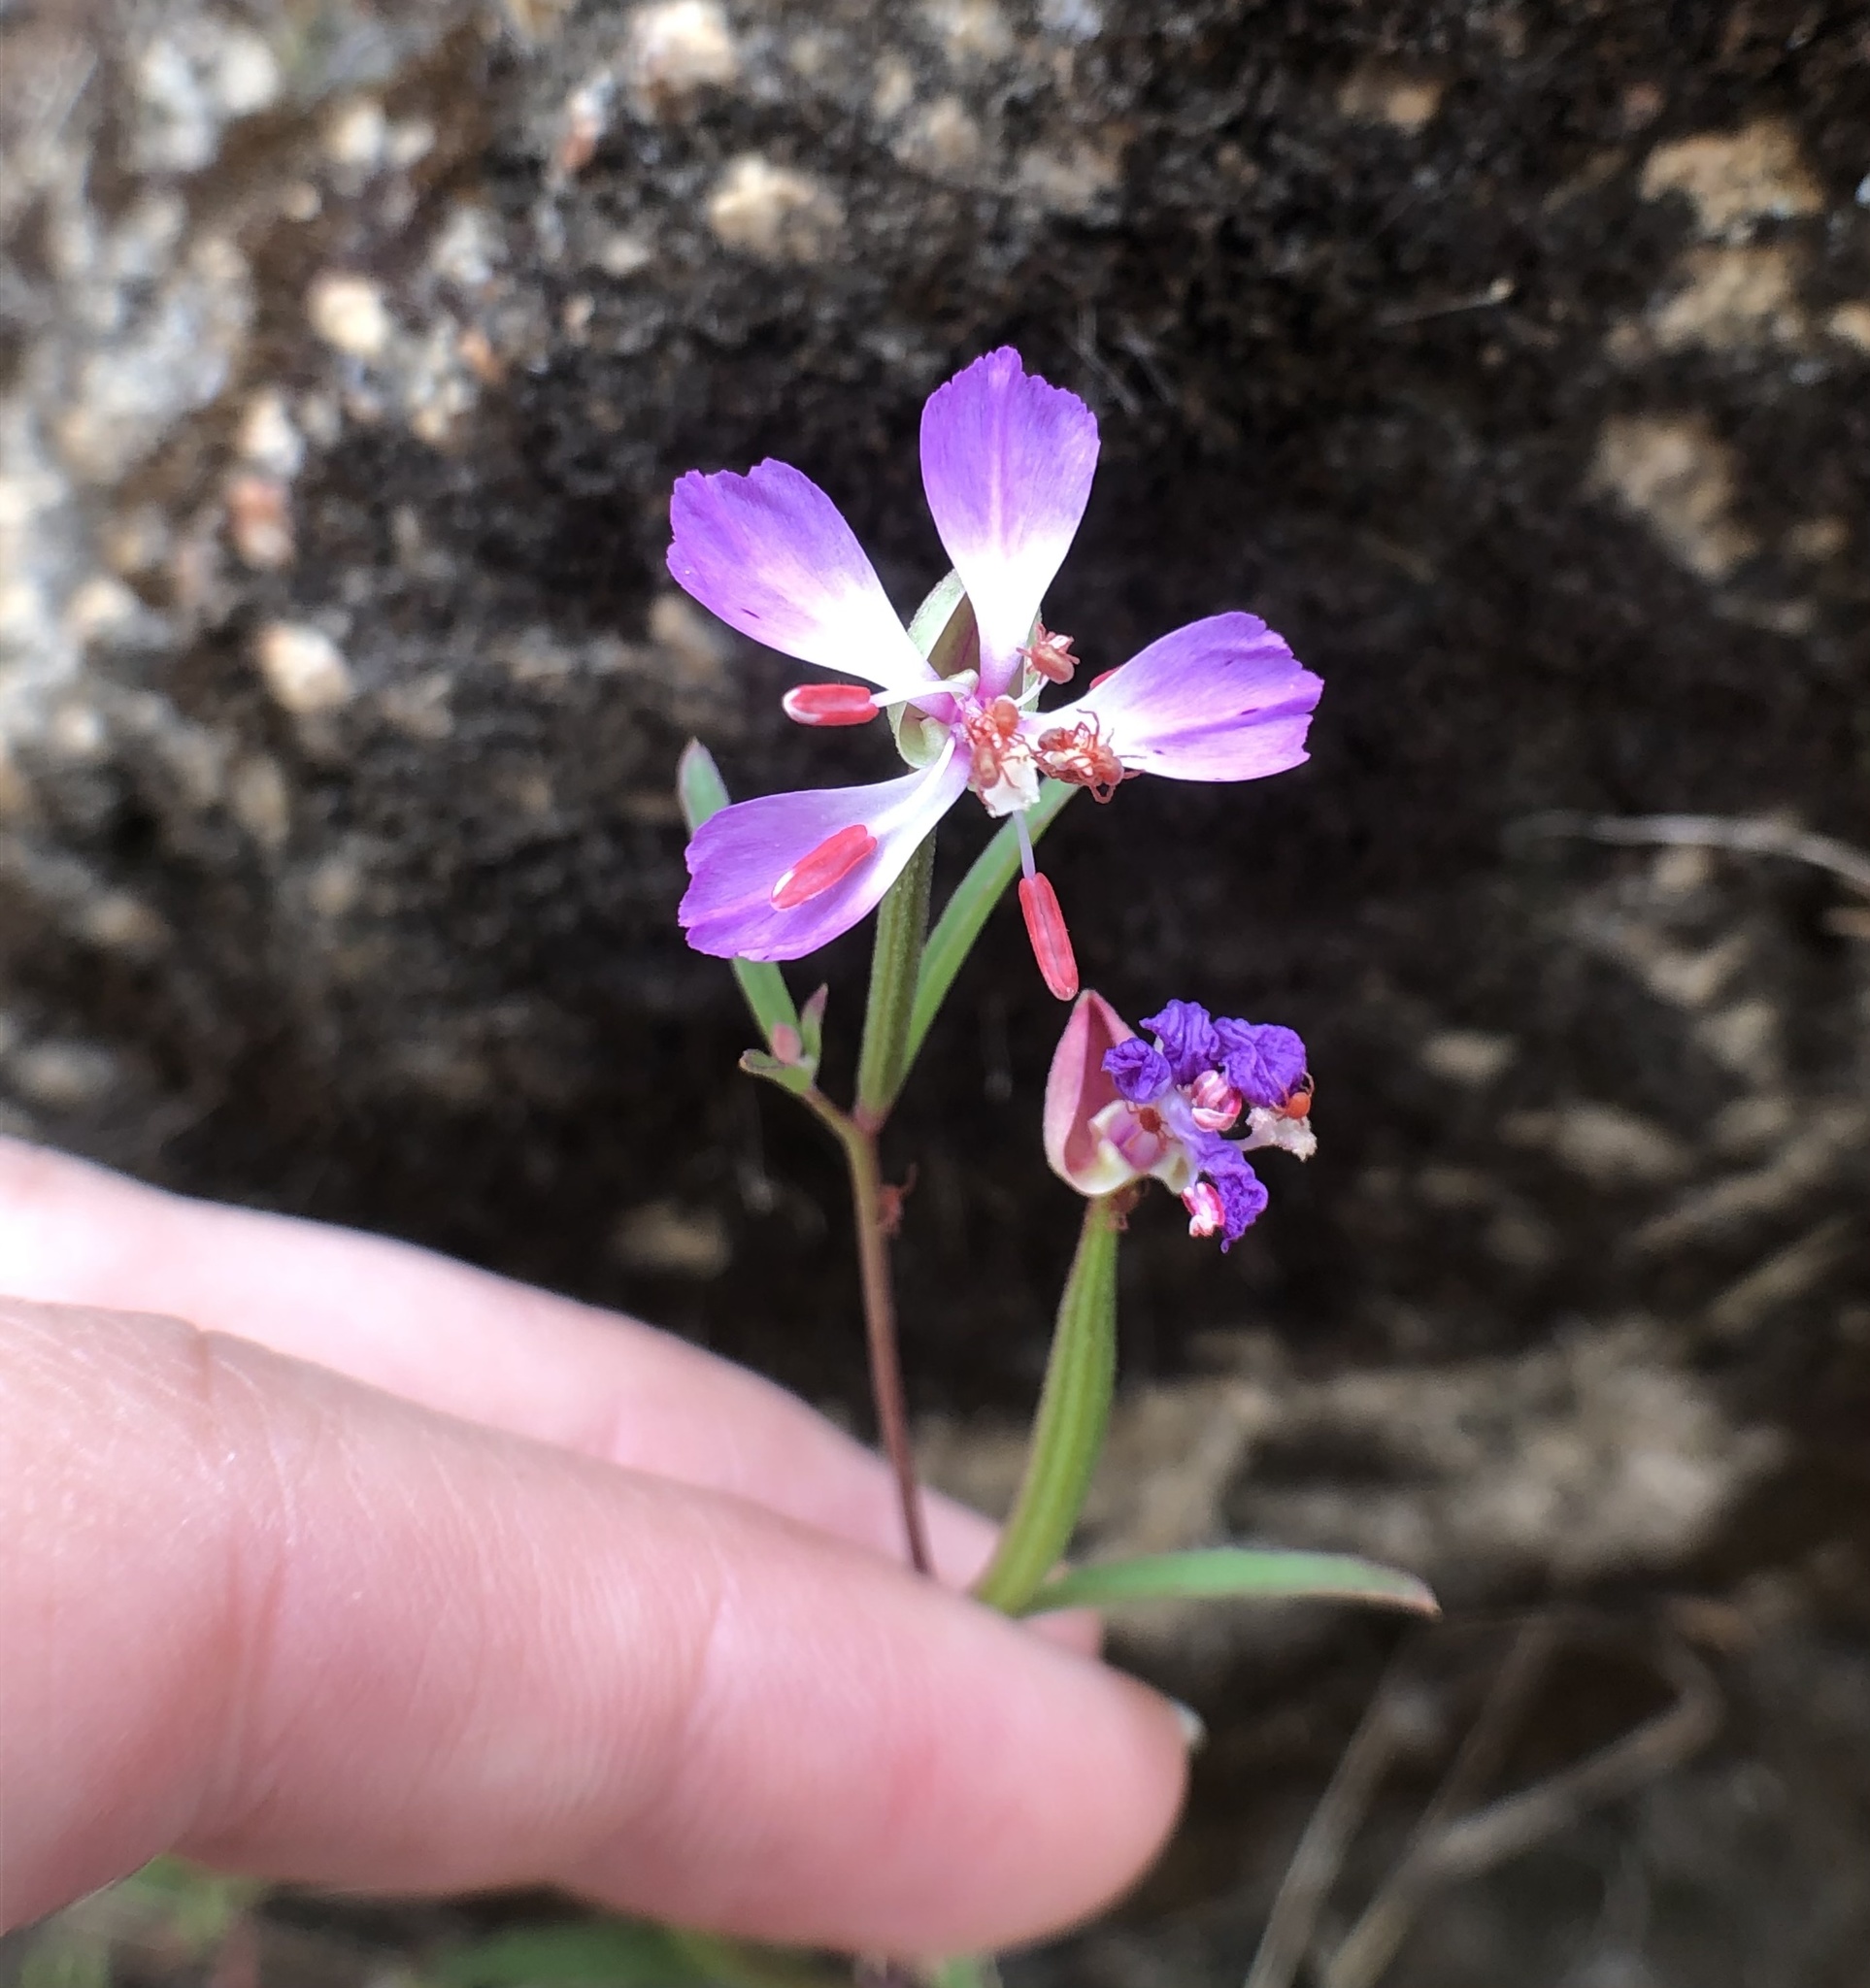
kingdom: Plantae
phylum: Tracheophyta
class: Magnoliopsida
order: Myrtales
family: Onagraceae
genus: Clarkia
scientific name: Clarkia delicata
